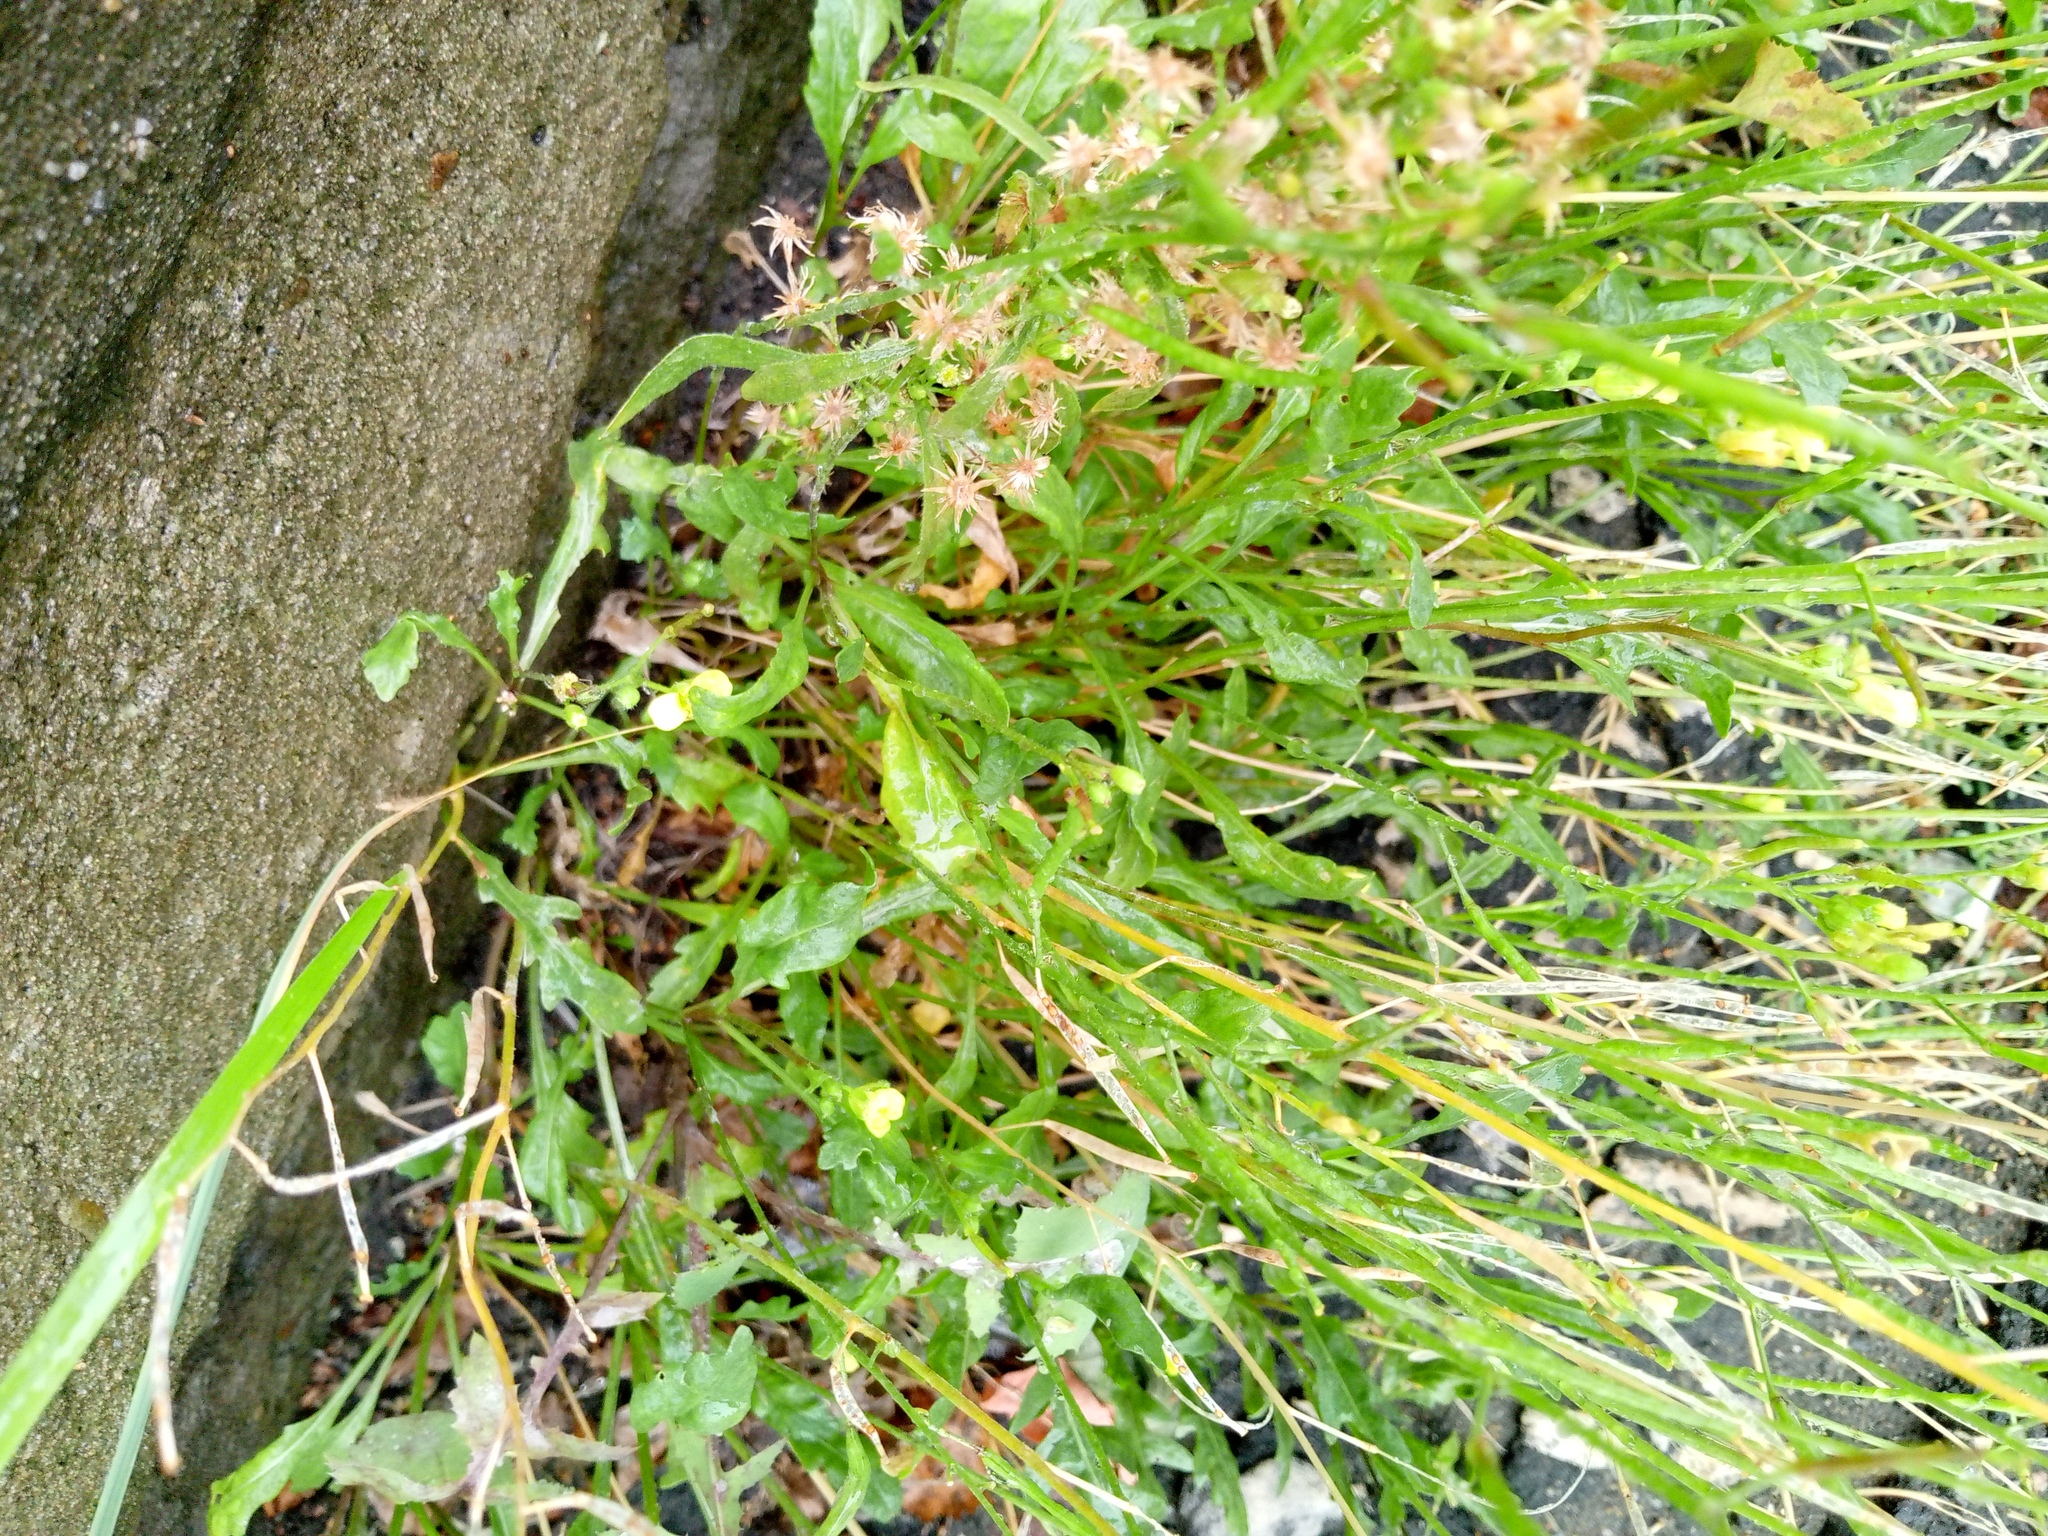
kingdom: Plantae
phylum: Tracheophyta
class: Magnoliopsida
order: Brassicales
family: Brassicaceae
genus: Diplotaxis
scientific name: Diplotaxis tenuifolia
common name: Perennial wall-rocket
